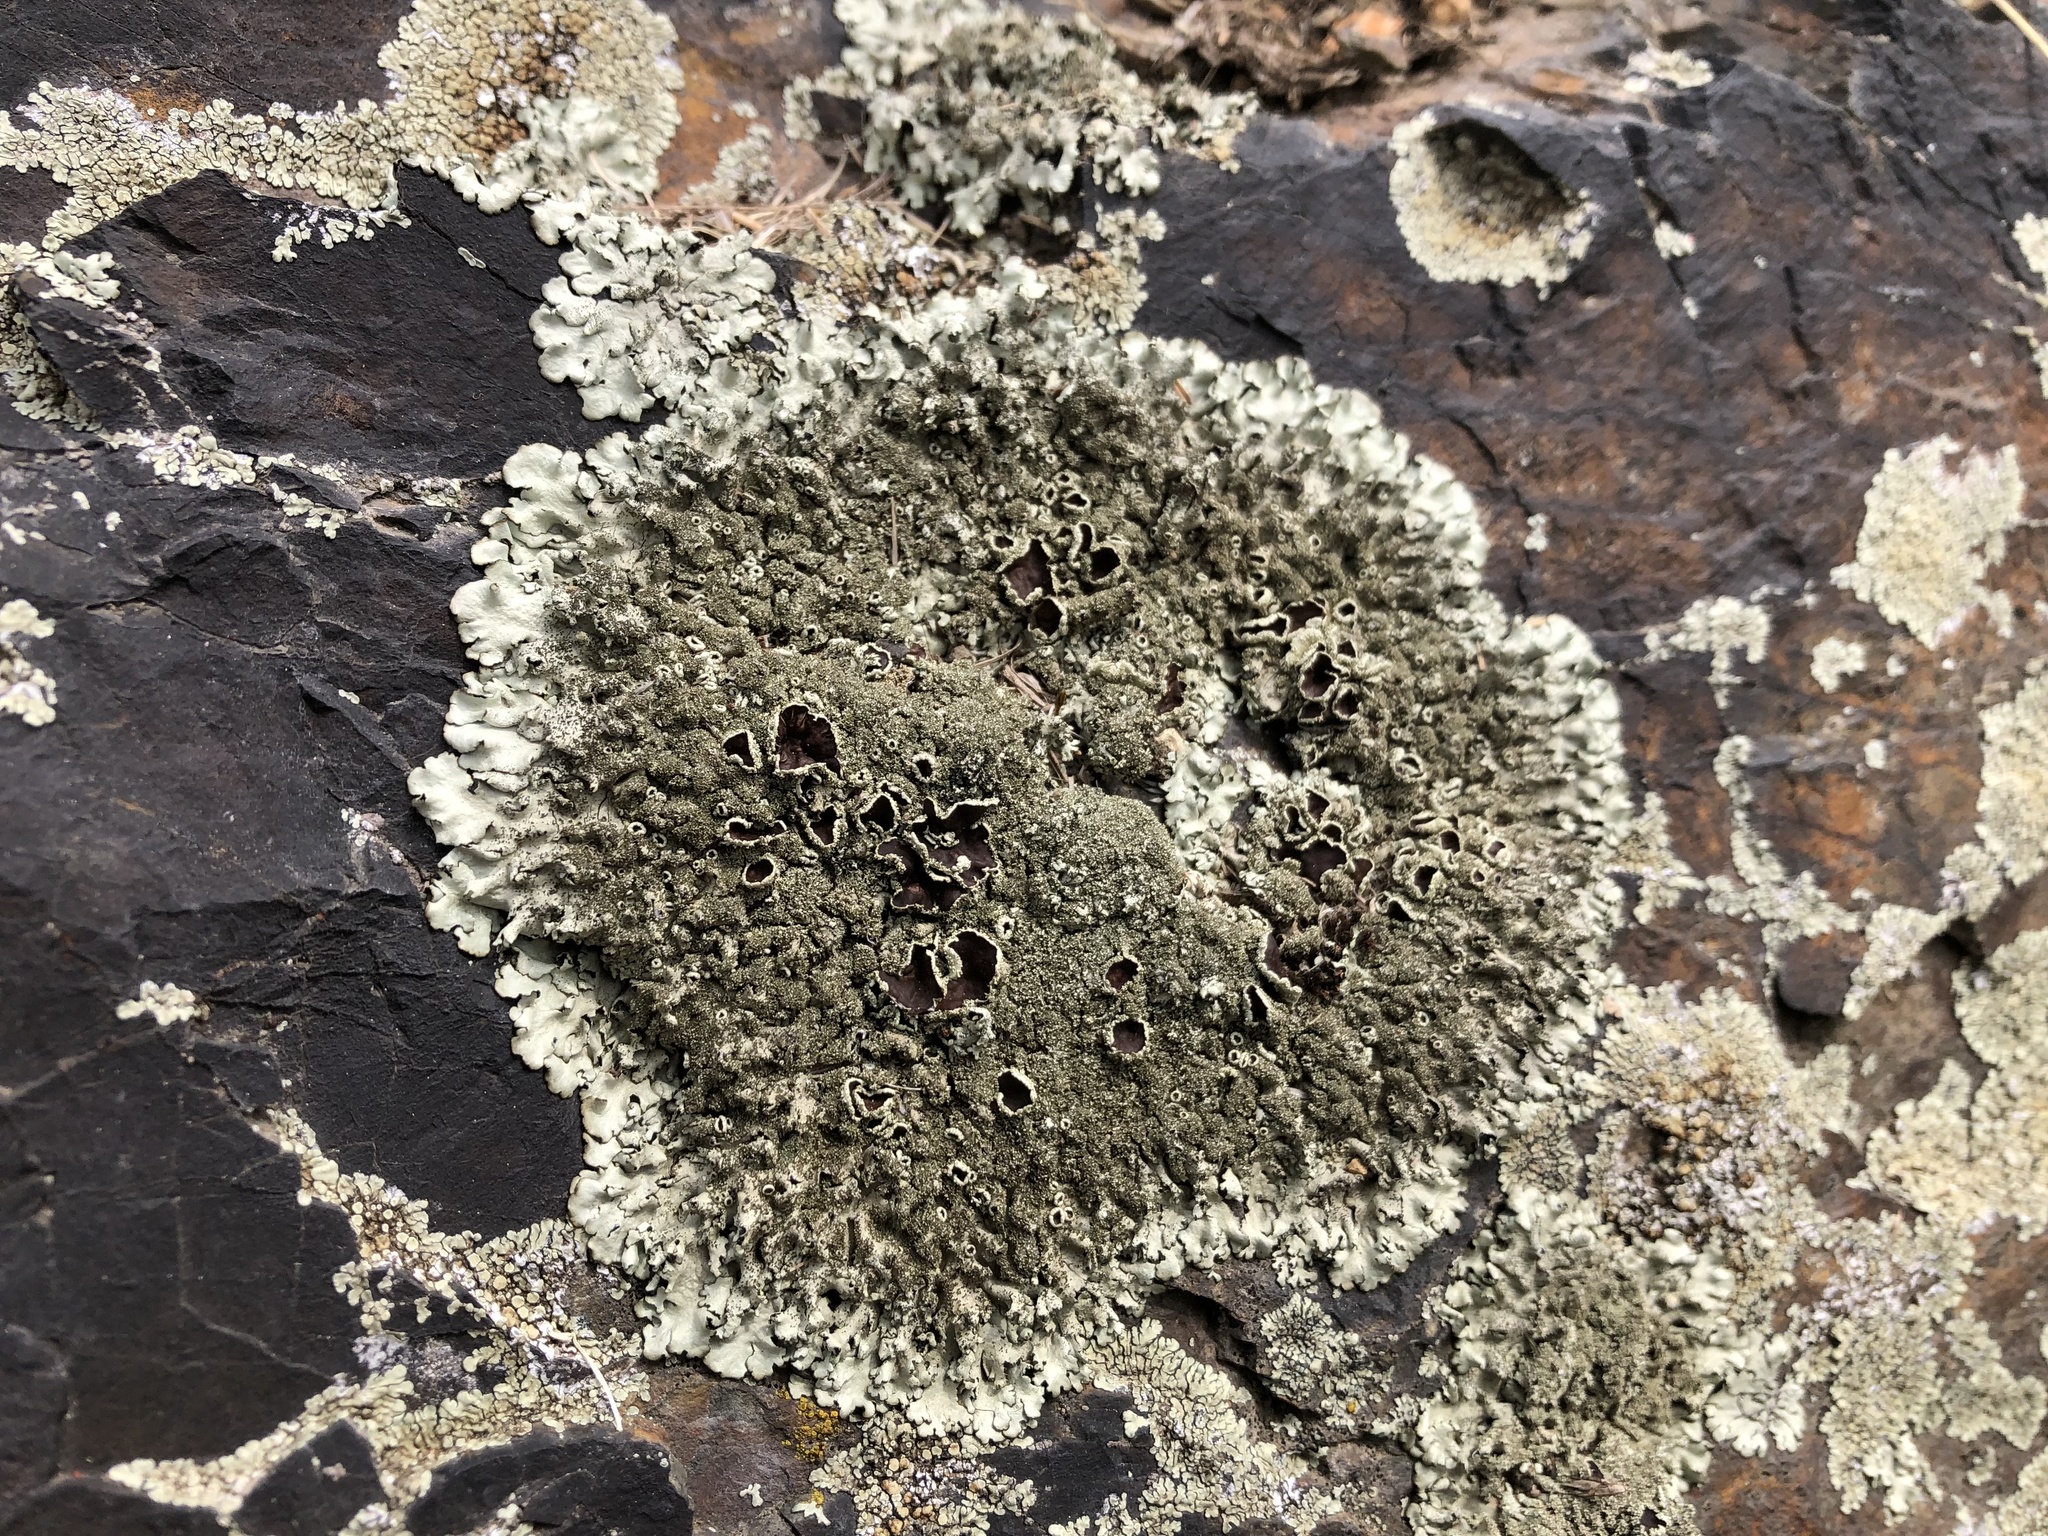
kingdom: Fungi
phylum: Ascomycota
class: Lecanoromycetes
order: Lecanorales
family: Parmeliaceae
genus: Xanthoparmelia
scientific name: Xanthoparmelia conspersa
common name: Peppered rock shield
